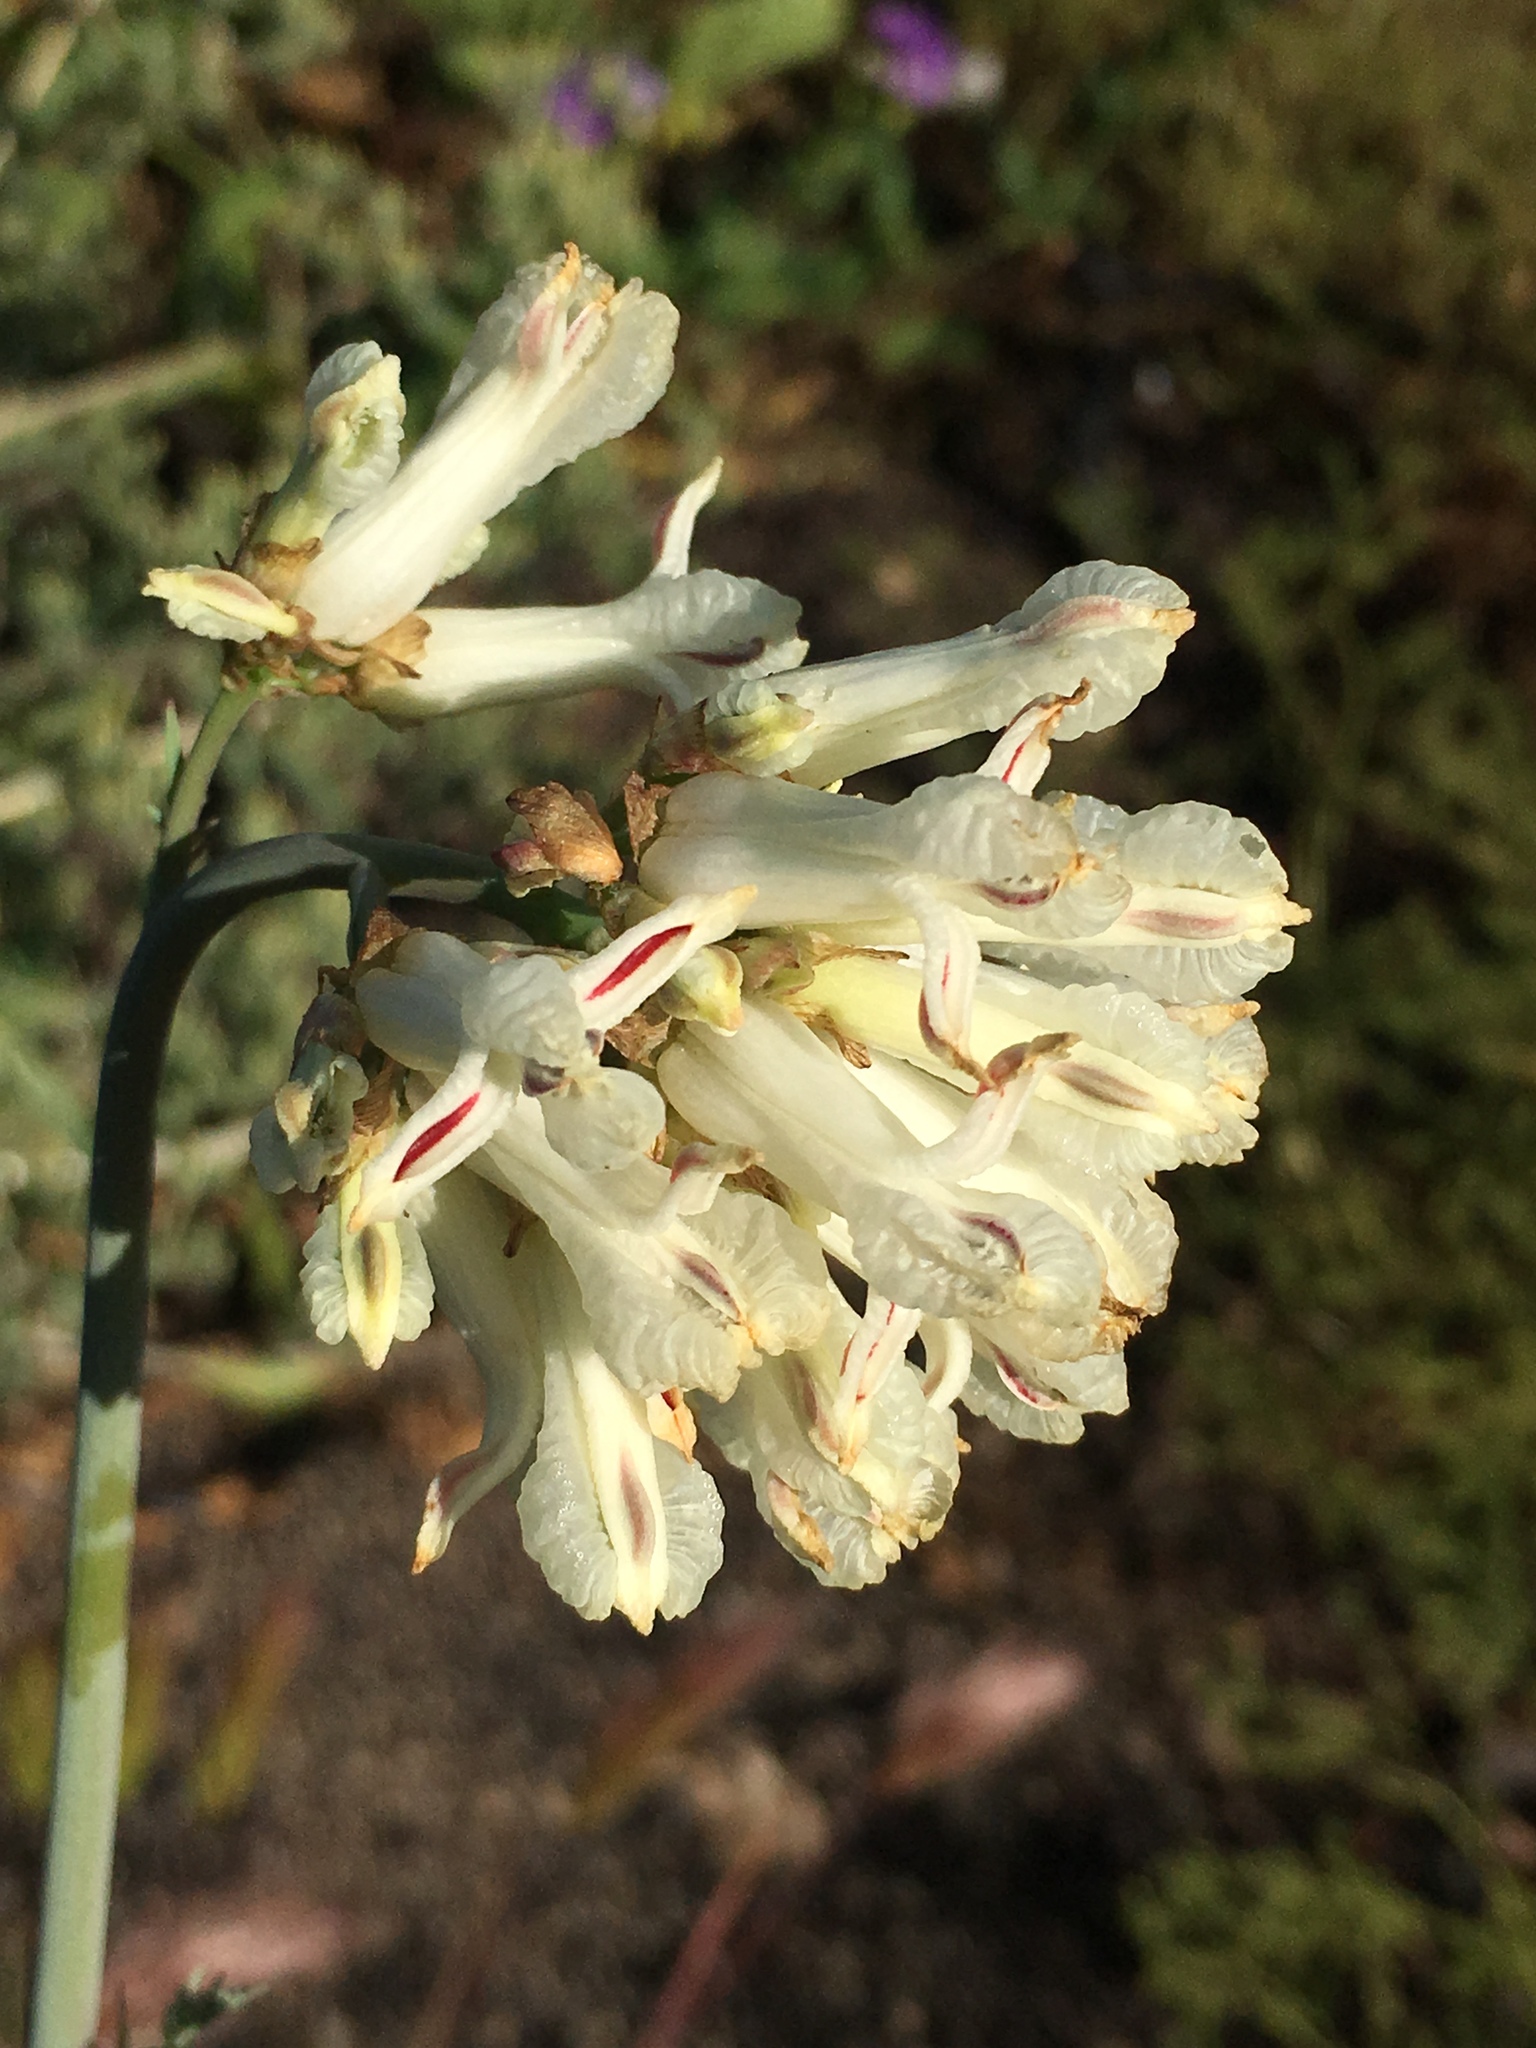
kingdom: Plantae
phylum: Tracheophyta
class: Magnoliopsida
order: Ranunculales
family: Papaveraceae
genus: Ehrendorferia
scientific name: Ehrendorferia ochroleuca
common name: White eardrops
